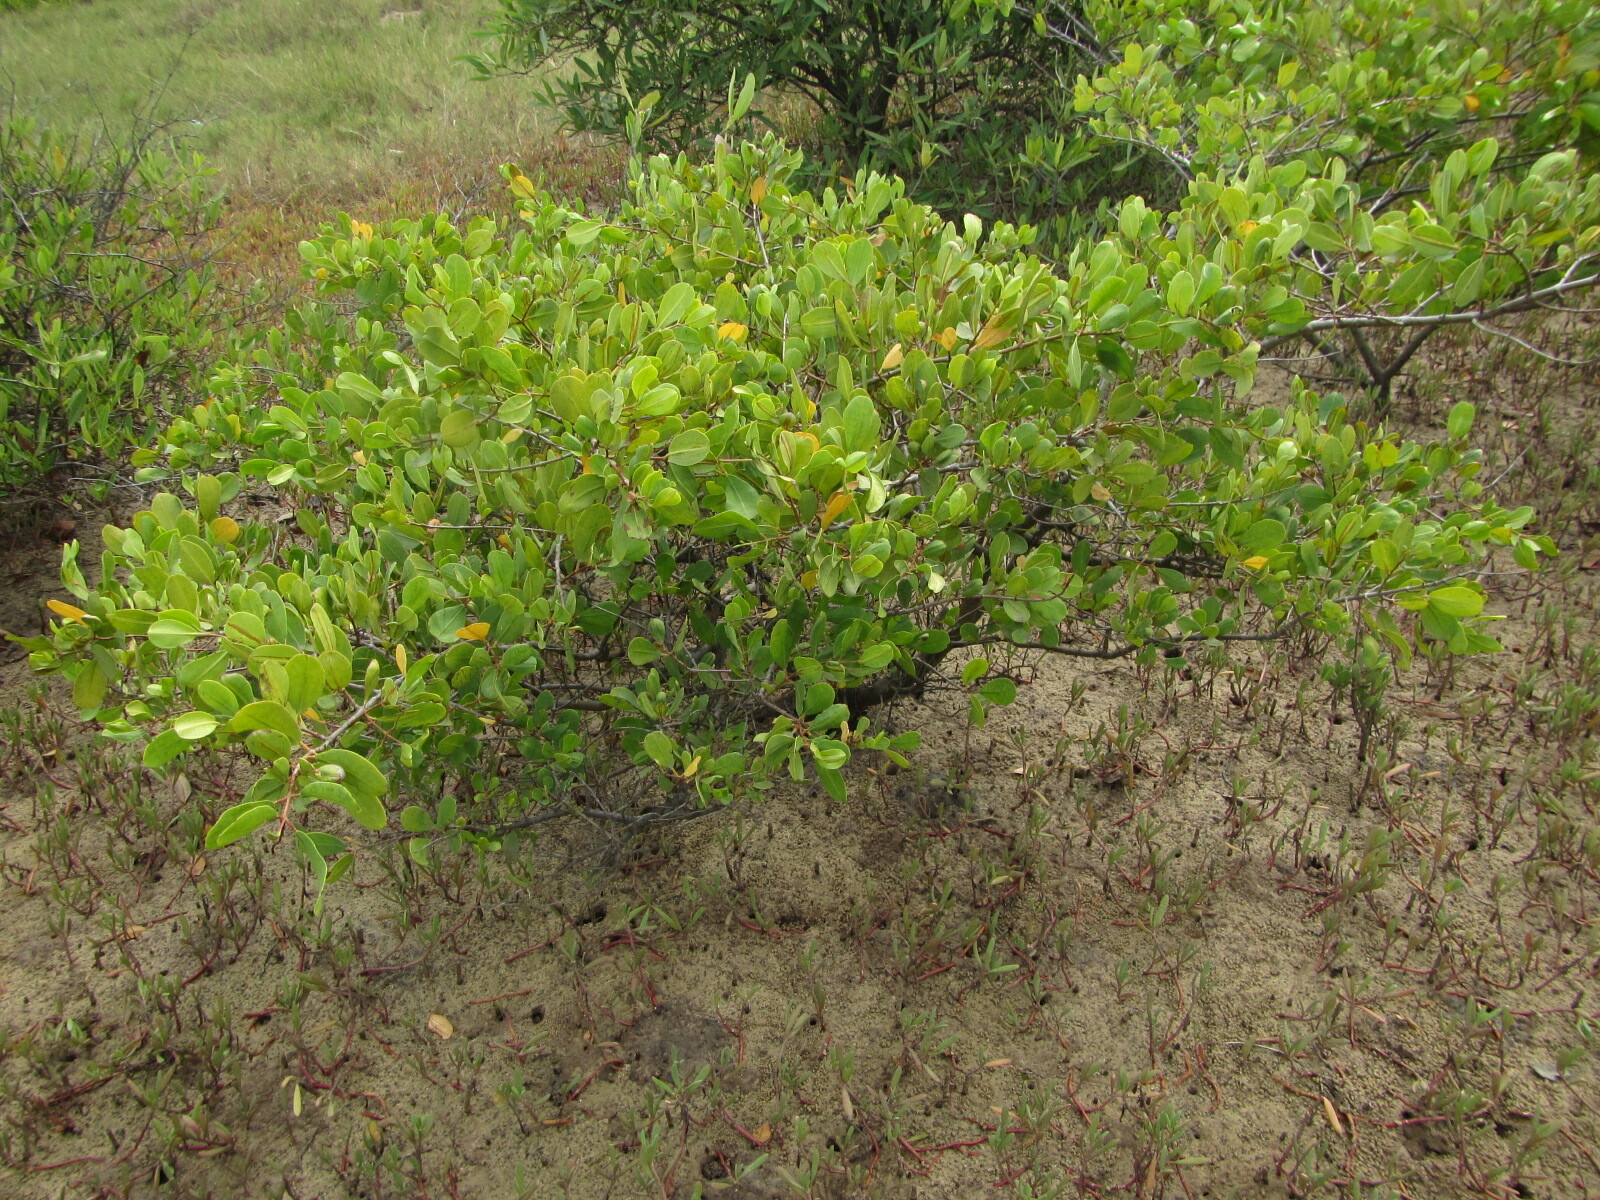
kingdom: Plantae
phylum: Tracheophyta
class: Magnoliopsida
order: Myrtales
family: Combretaceae
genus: Laguncularia
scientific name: Laguncularia racemosa
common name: White mangrove
